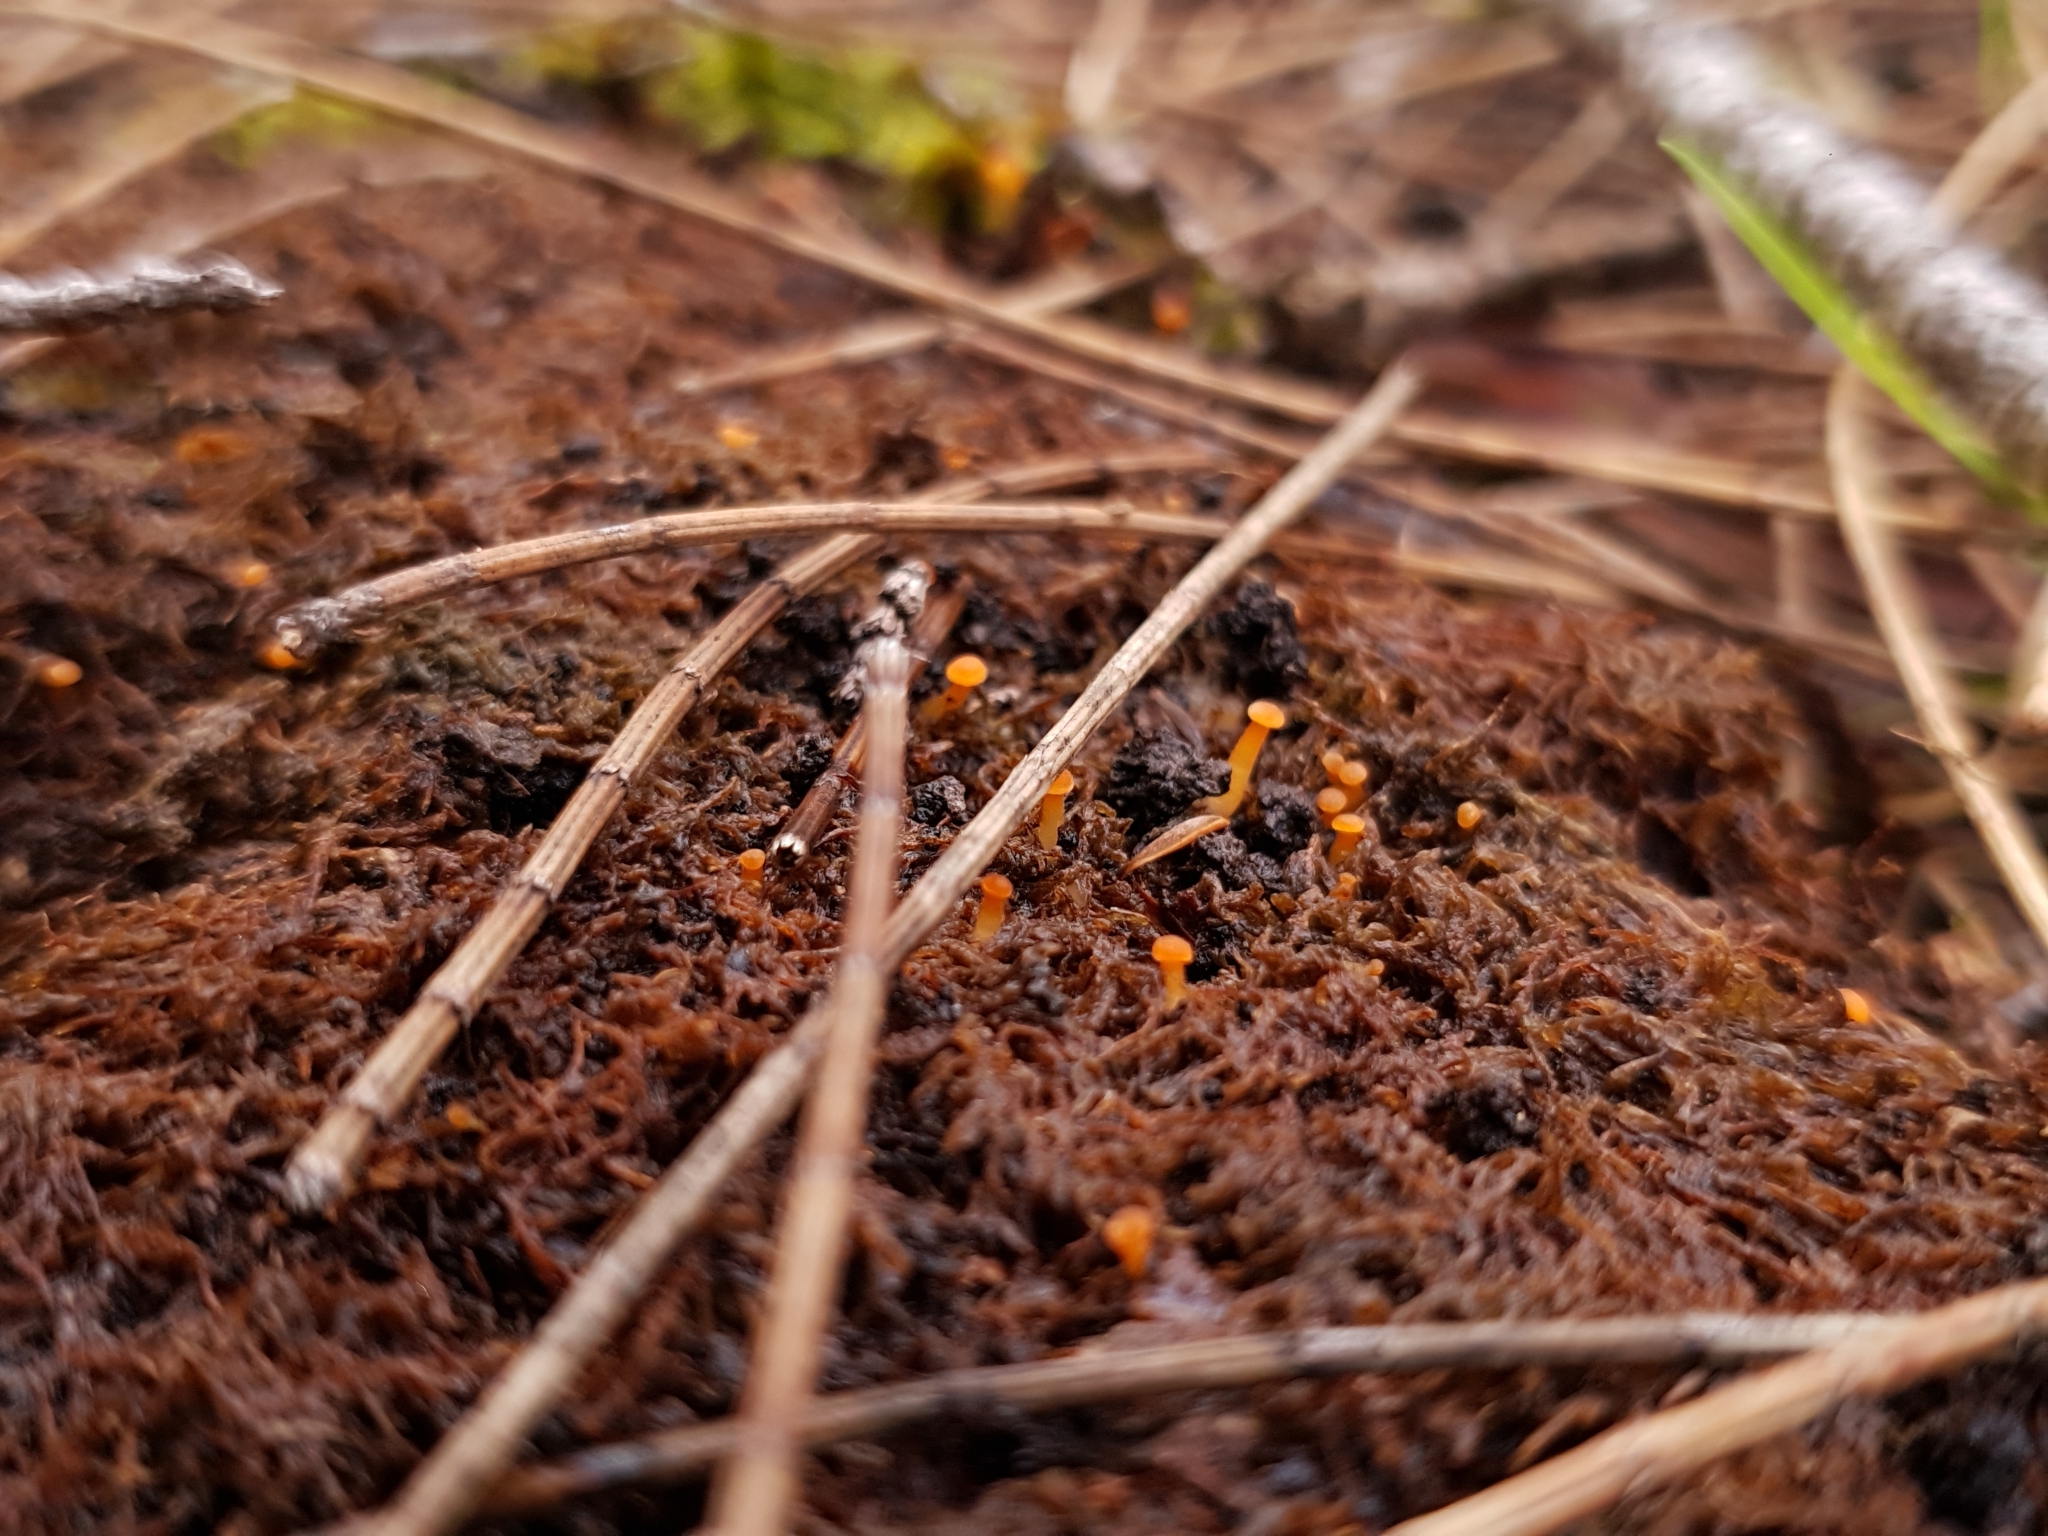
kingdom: Fungi
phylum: Basidiomycota
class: Agaricomycetes
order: Hymenochaetales
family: Rickenellaceae
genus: Rickenella
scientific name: Rickenella fibula
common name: Orange mosscap
